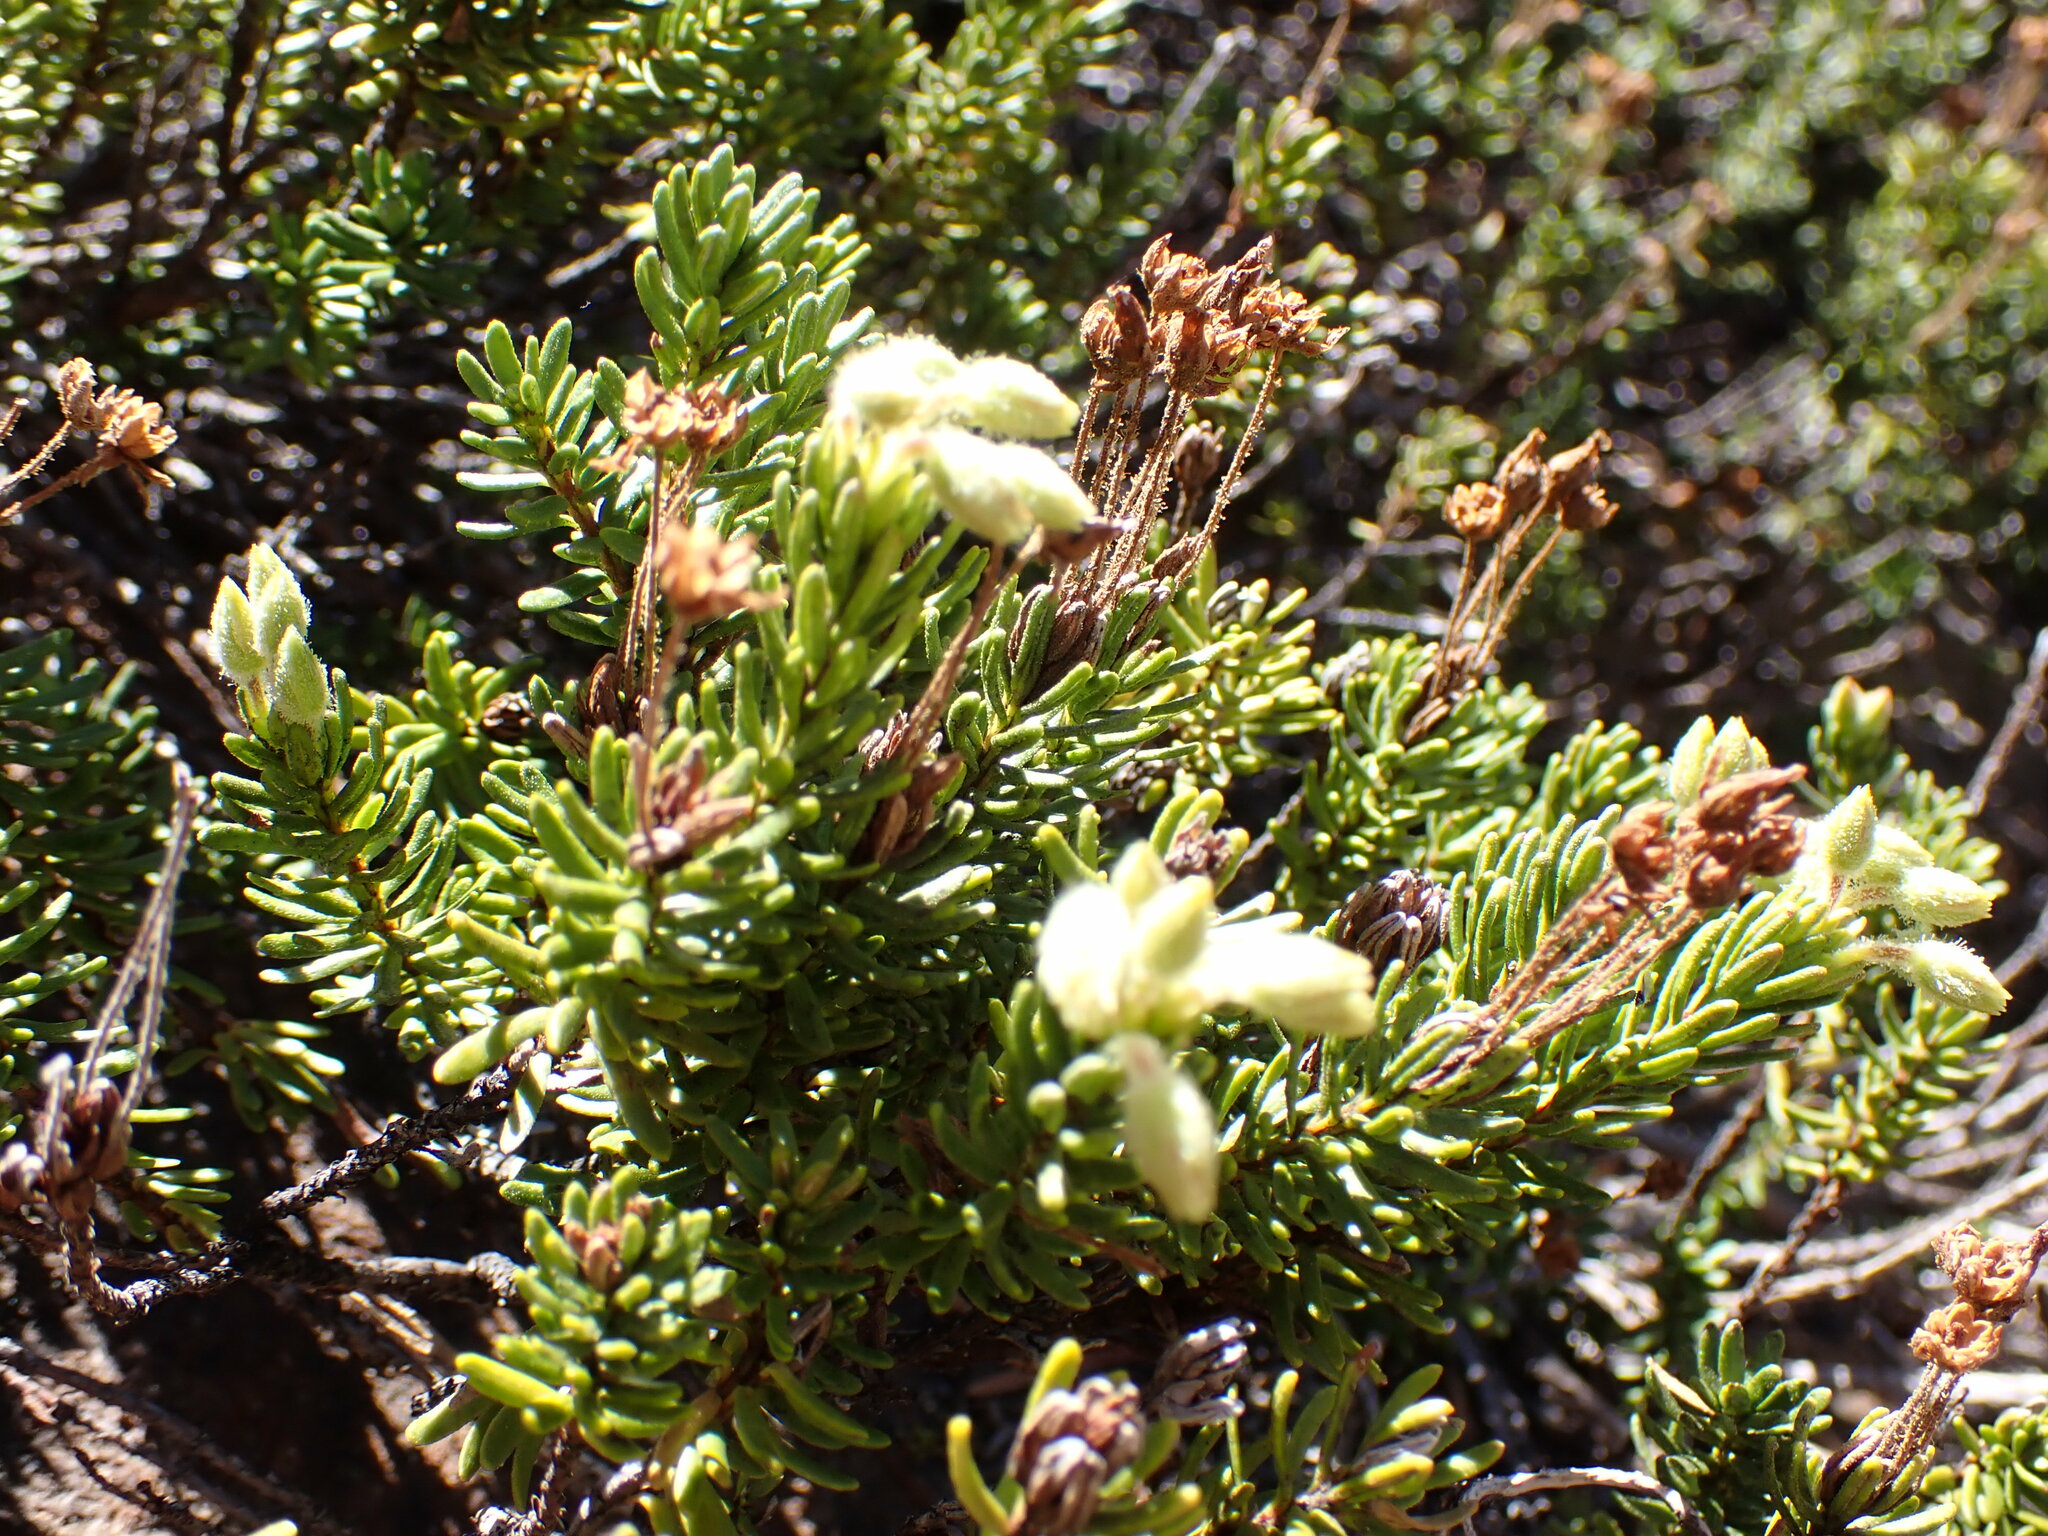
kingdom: Plantae
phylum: Tracheophyta
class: Magnoliopsida
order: Ericales
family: Ericaceae
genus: Phyllodoce
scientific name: Phyllodoce glanduliflora
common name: Cream mountain heather
